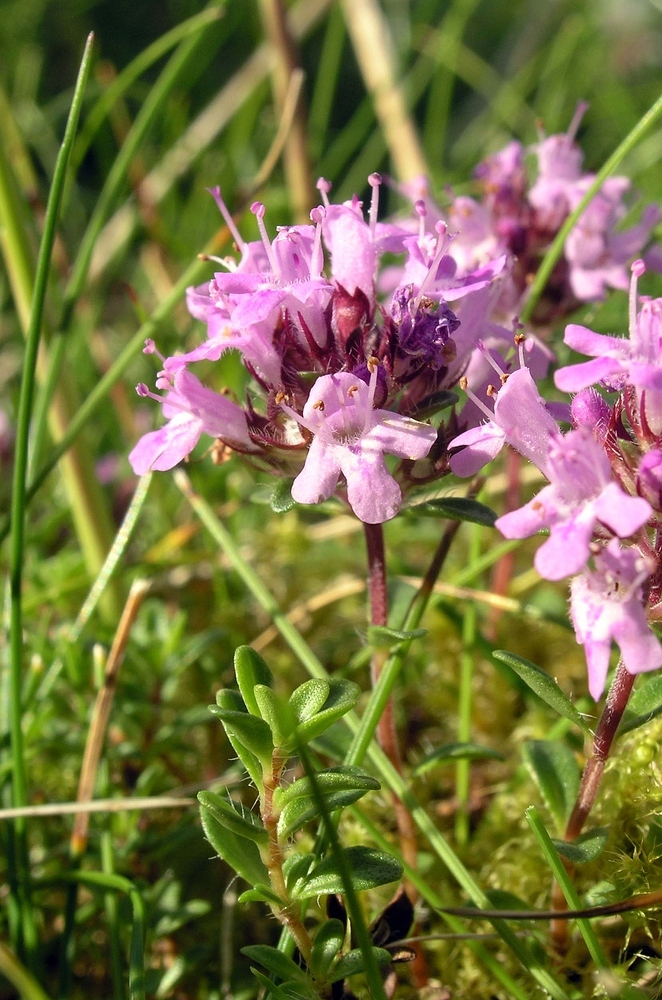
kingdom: Plantae
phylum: Tracheophyta
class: Magnoliopsida
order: Lamiales
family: Lamiaceae
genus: Thymus
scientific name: Thymus praecox
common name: Wild thyme
